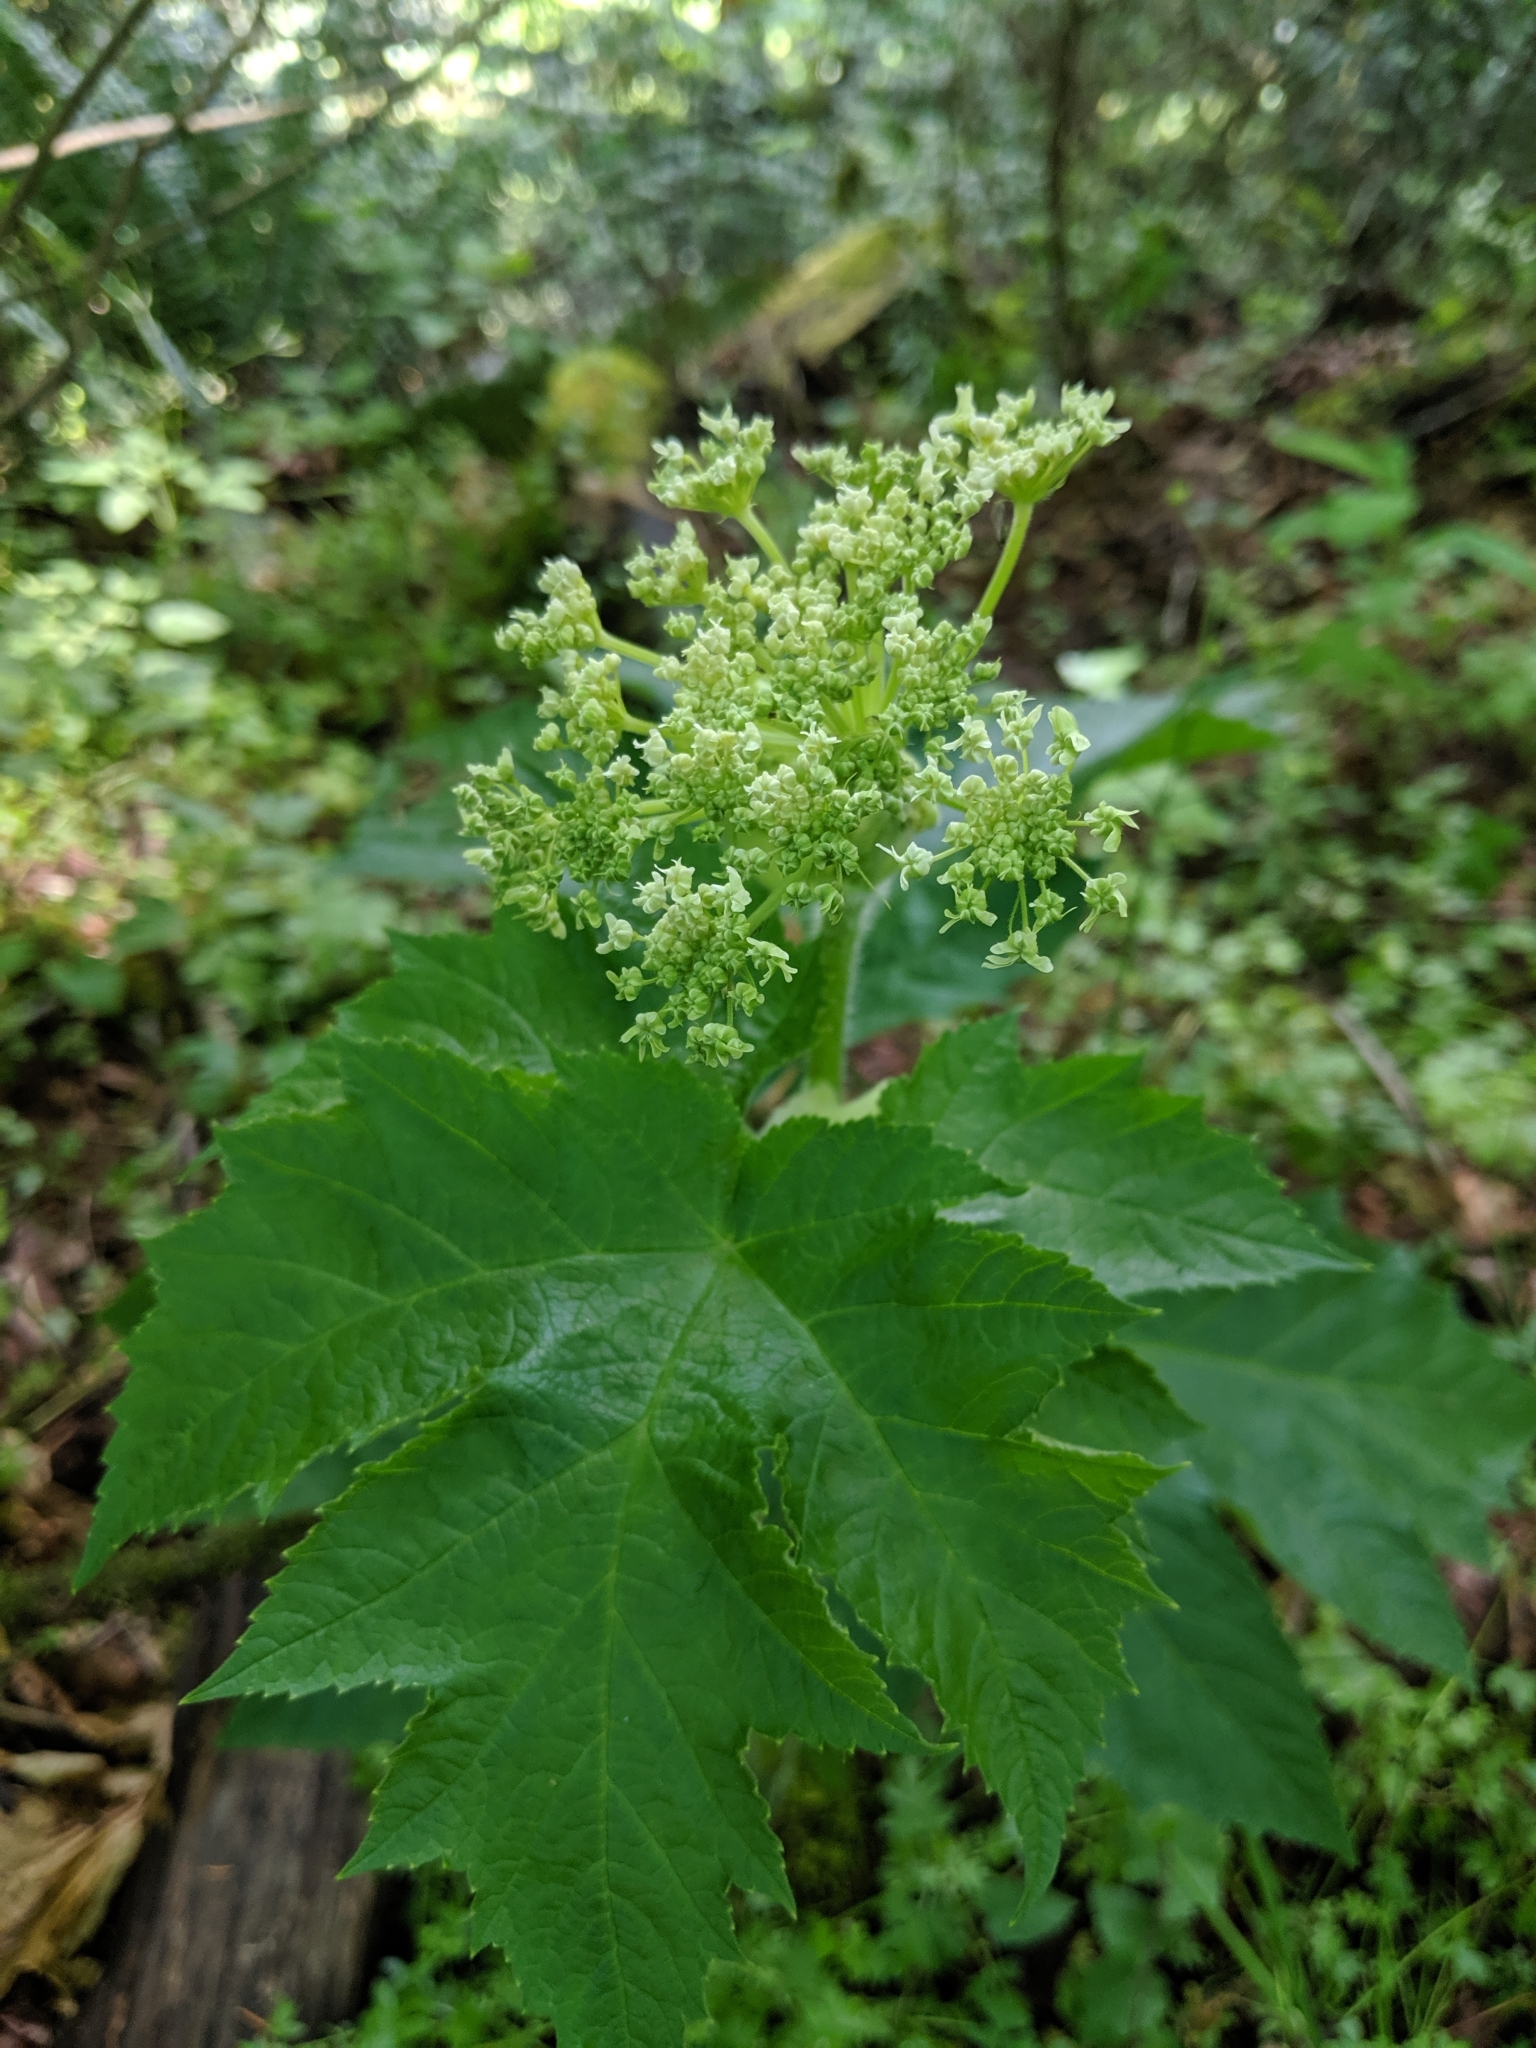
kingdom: Plantae
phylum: Tracheophyta
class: Magnoliopsida
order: Apiales
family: Apiaceae
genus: Heracleum
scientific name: Heracleum maximum
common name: American cow parsnip
